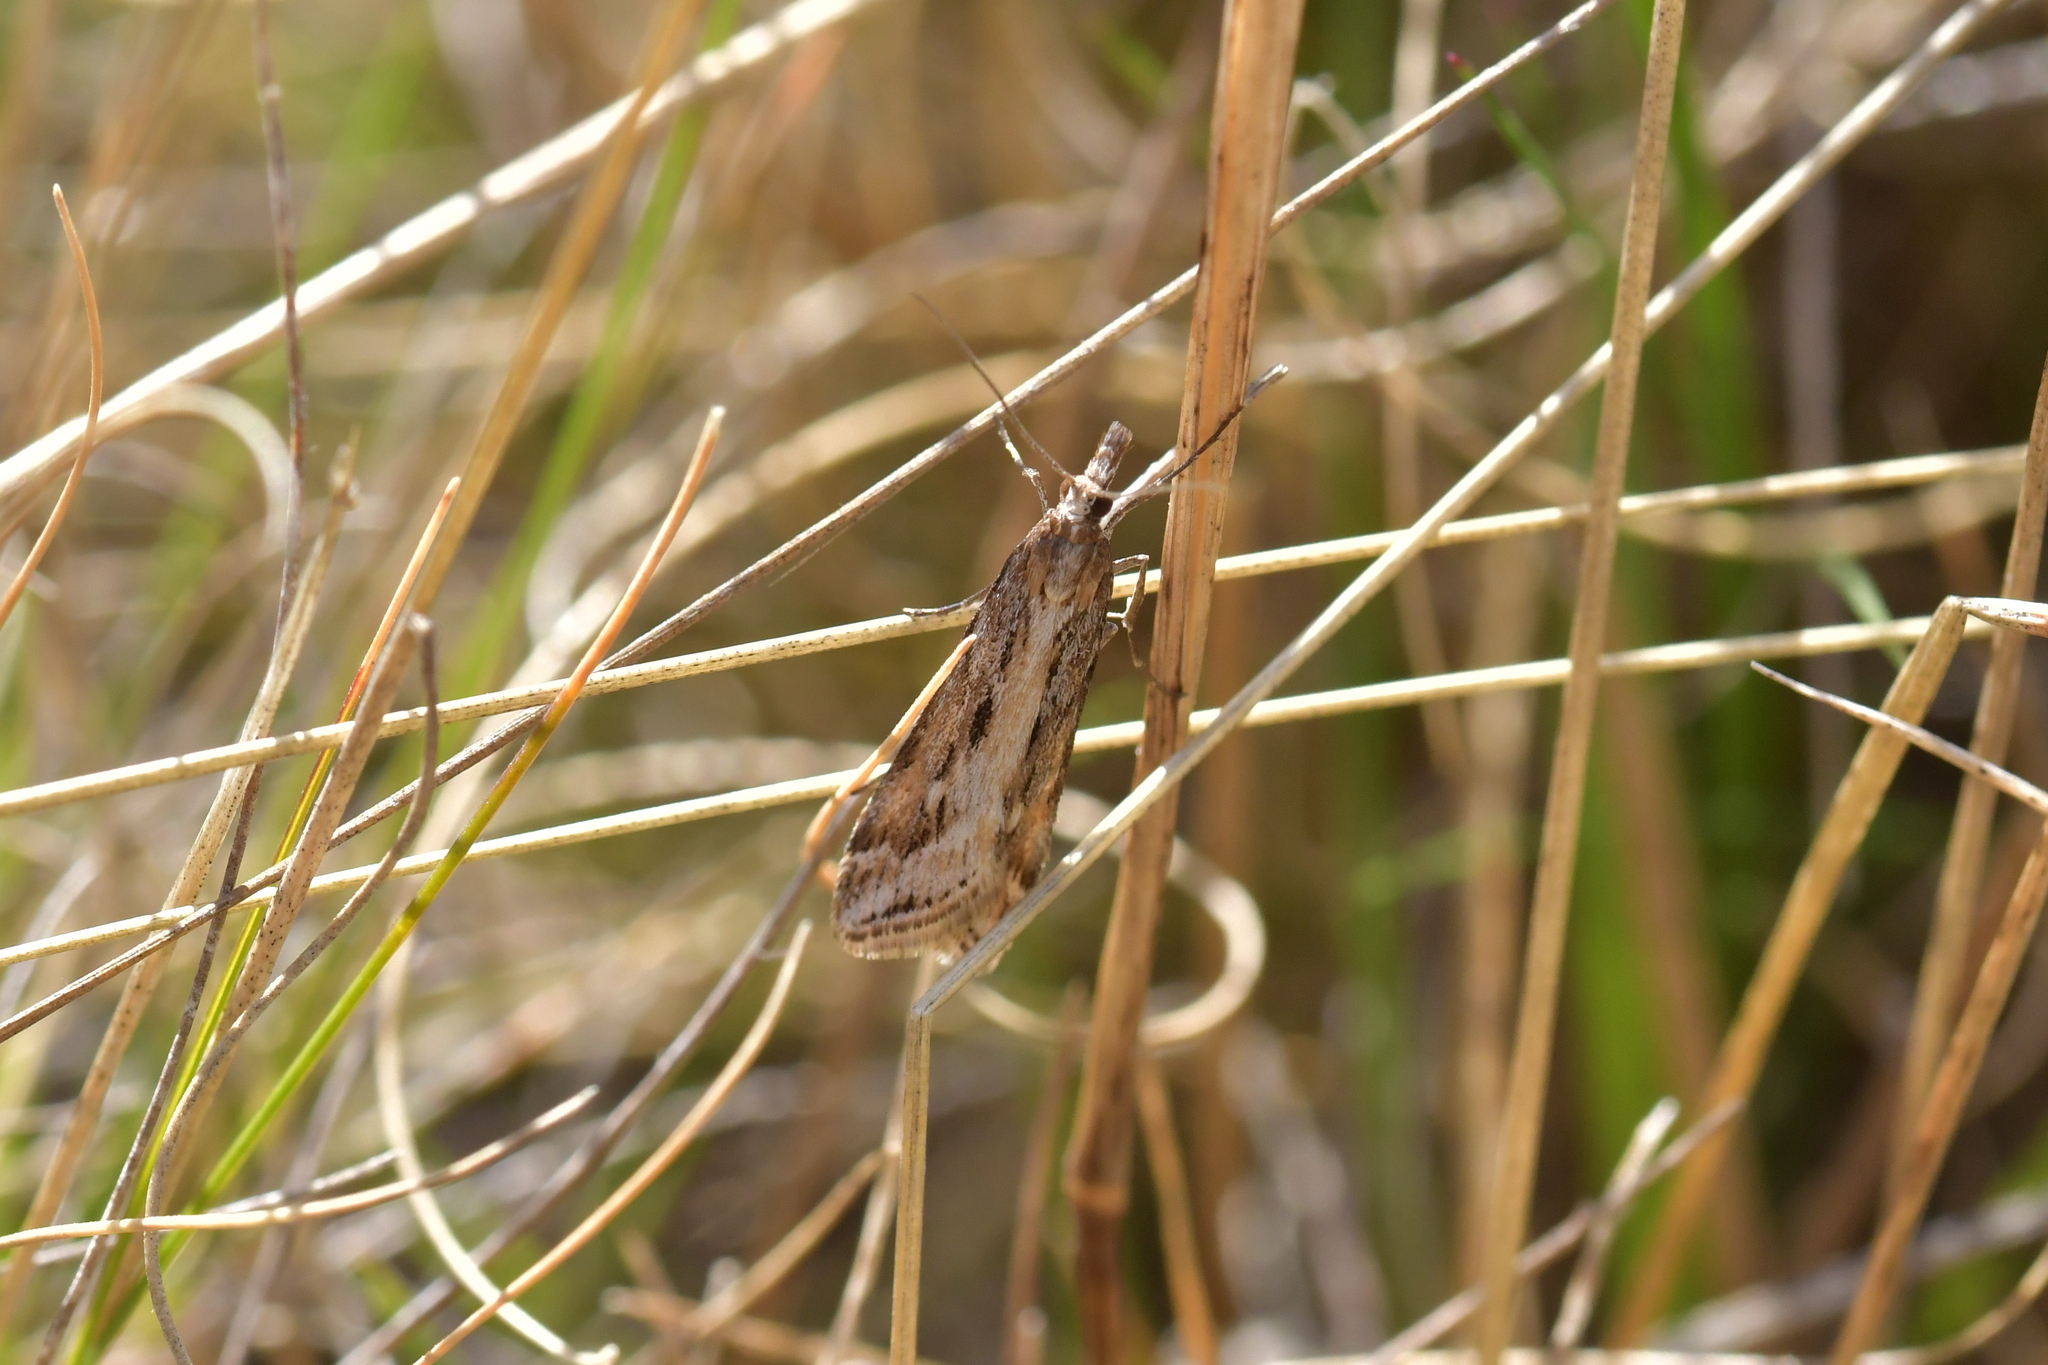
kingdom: Animalia
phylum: Arthropoda
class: Insecta
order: Lepidoptera
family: Crambidae
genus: Scoparia
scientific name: Scoparia exilis
